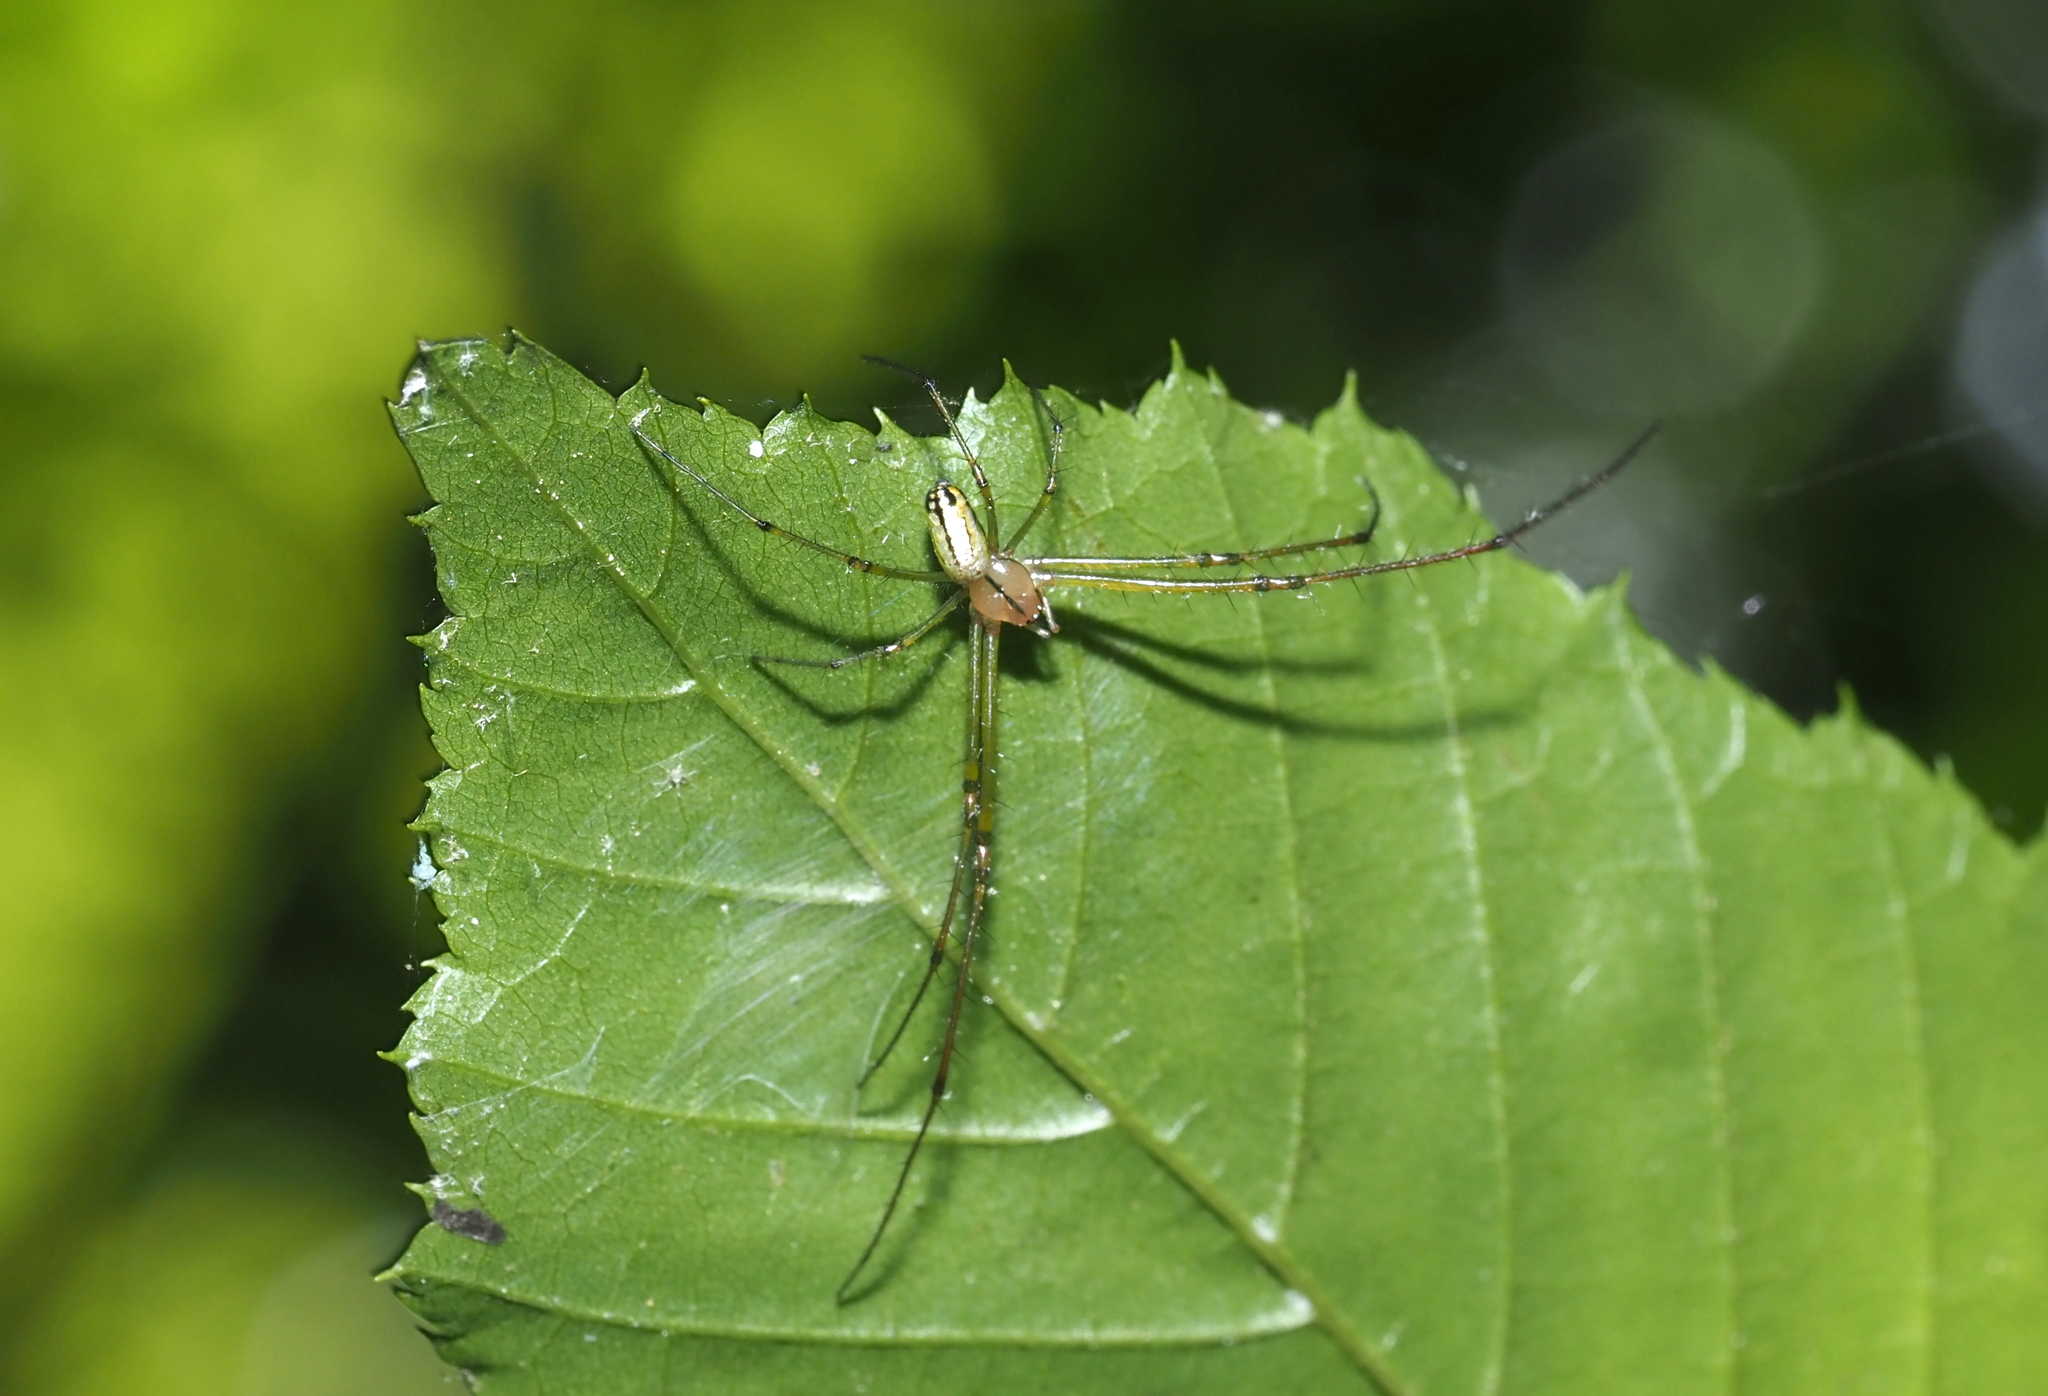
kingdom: Animalia
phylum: Arthropoda
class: Arachnida
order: Araneae
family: Tetragnathidae
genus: Leucauge
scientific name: Leucauge venusta
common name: Longjawed orb weavers
